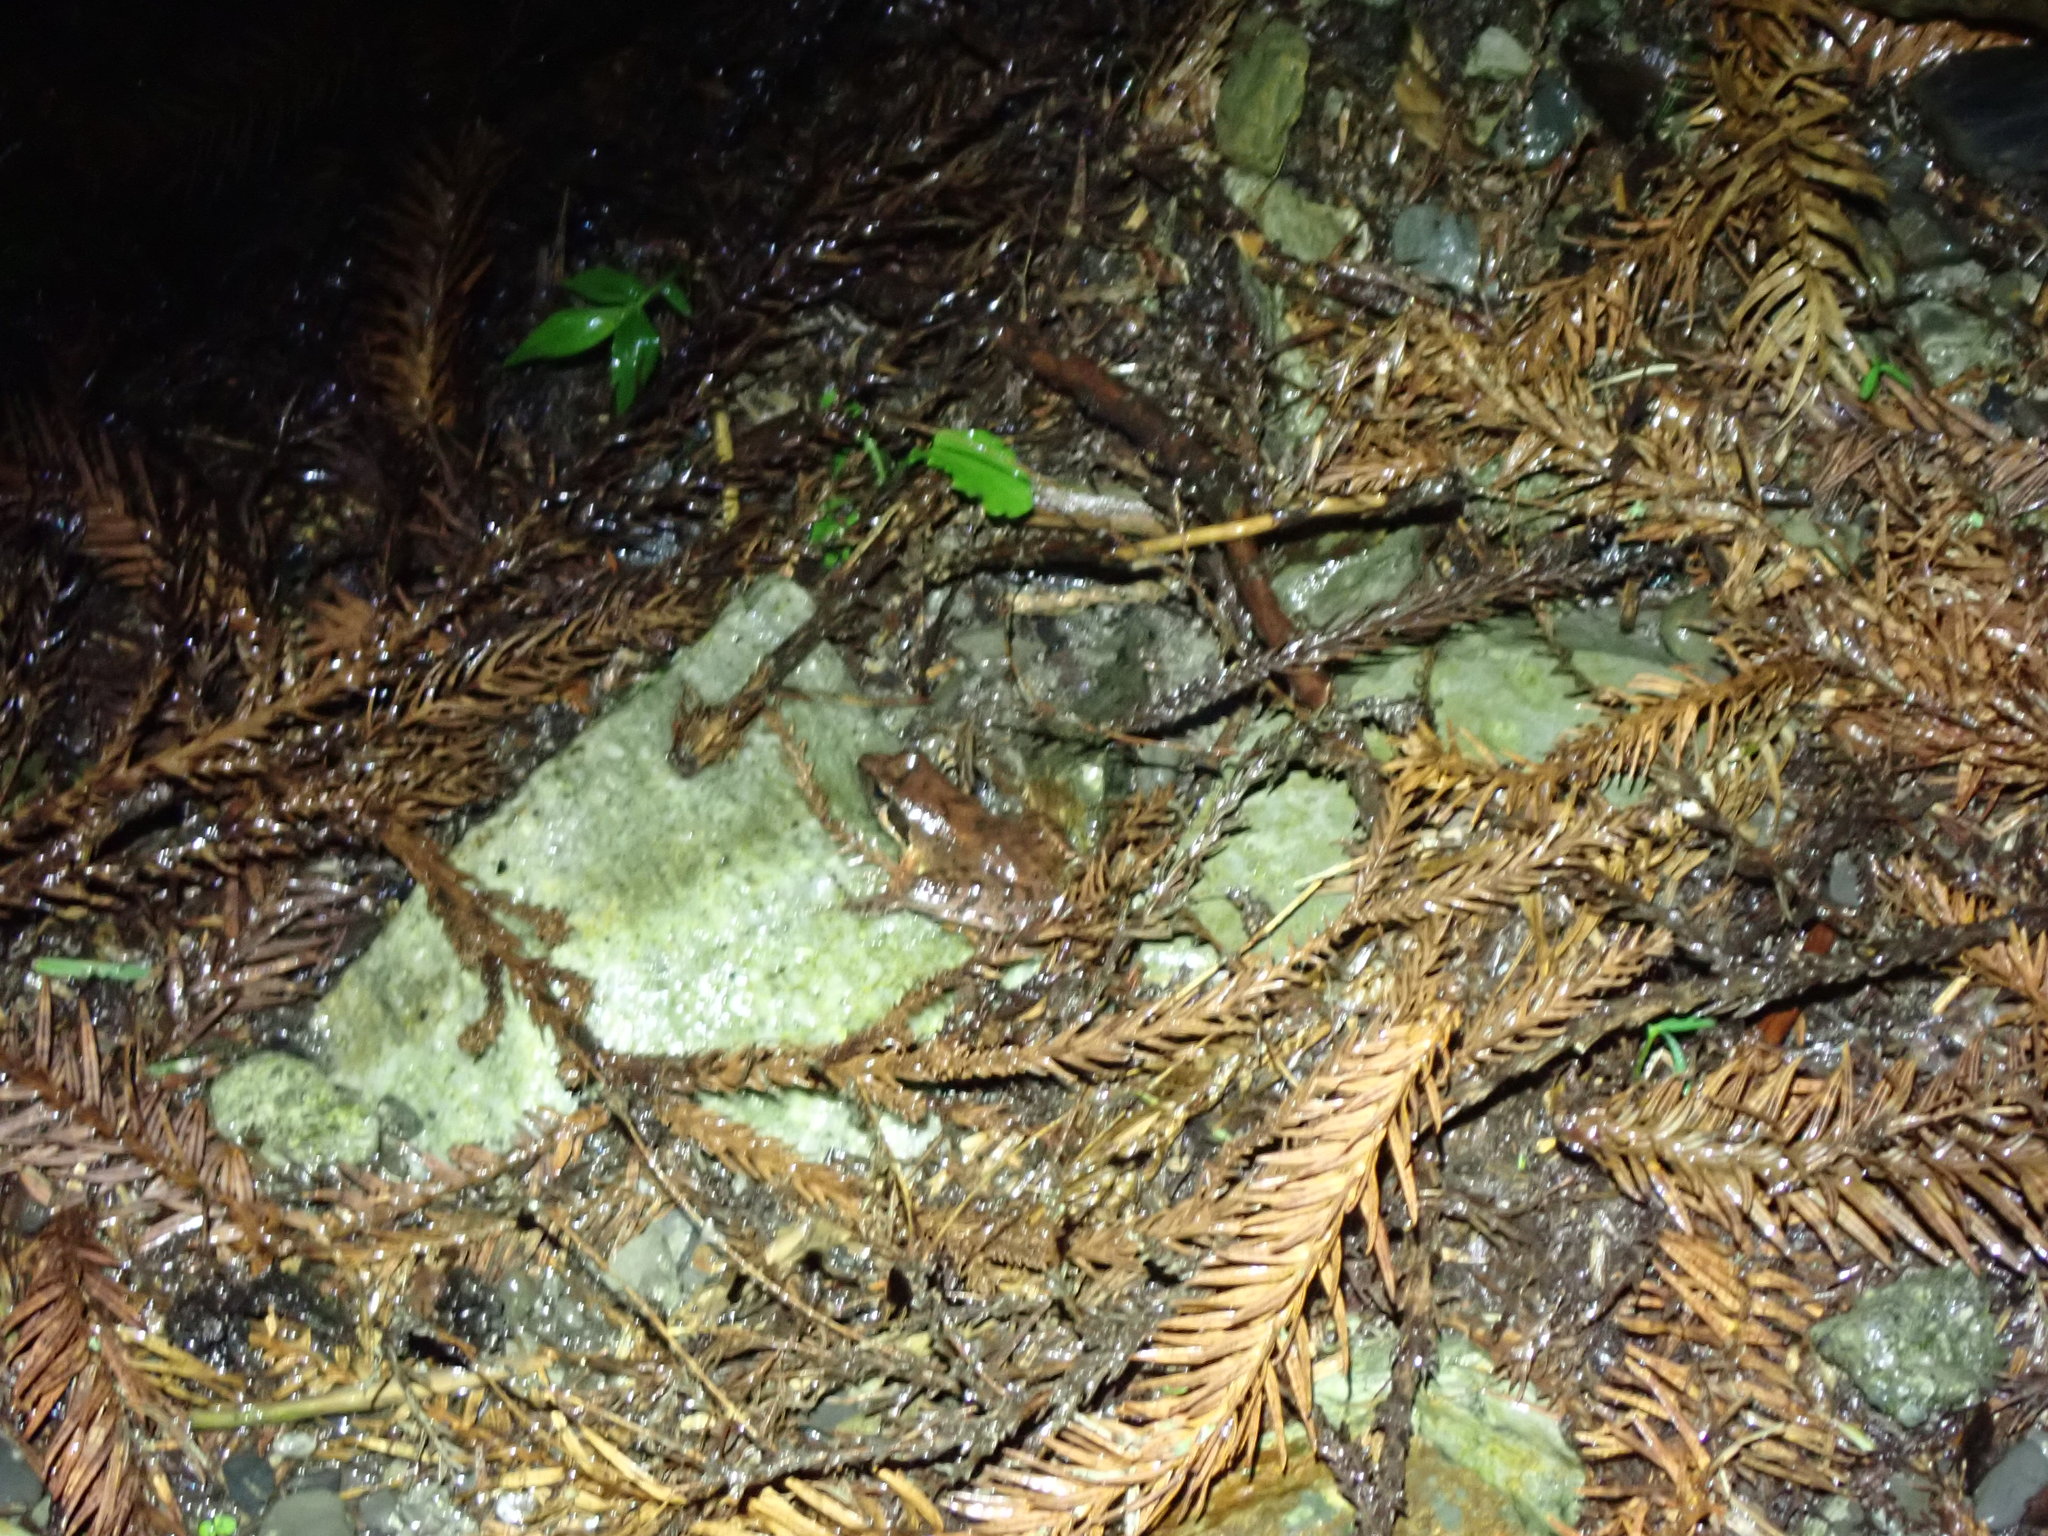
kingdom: Animalia
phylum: Chordata
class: Amphibia
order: Anura
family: Ranidae
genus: Rana
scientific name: Rana sauteri
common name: Kanshirei village frog
